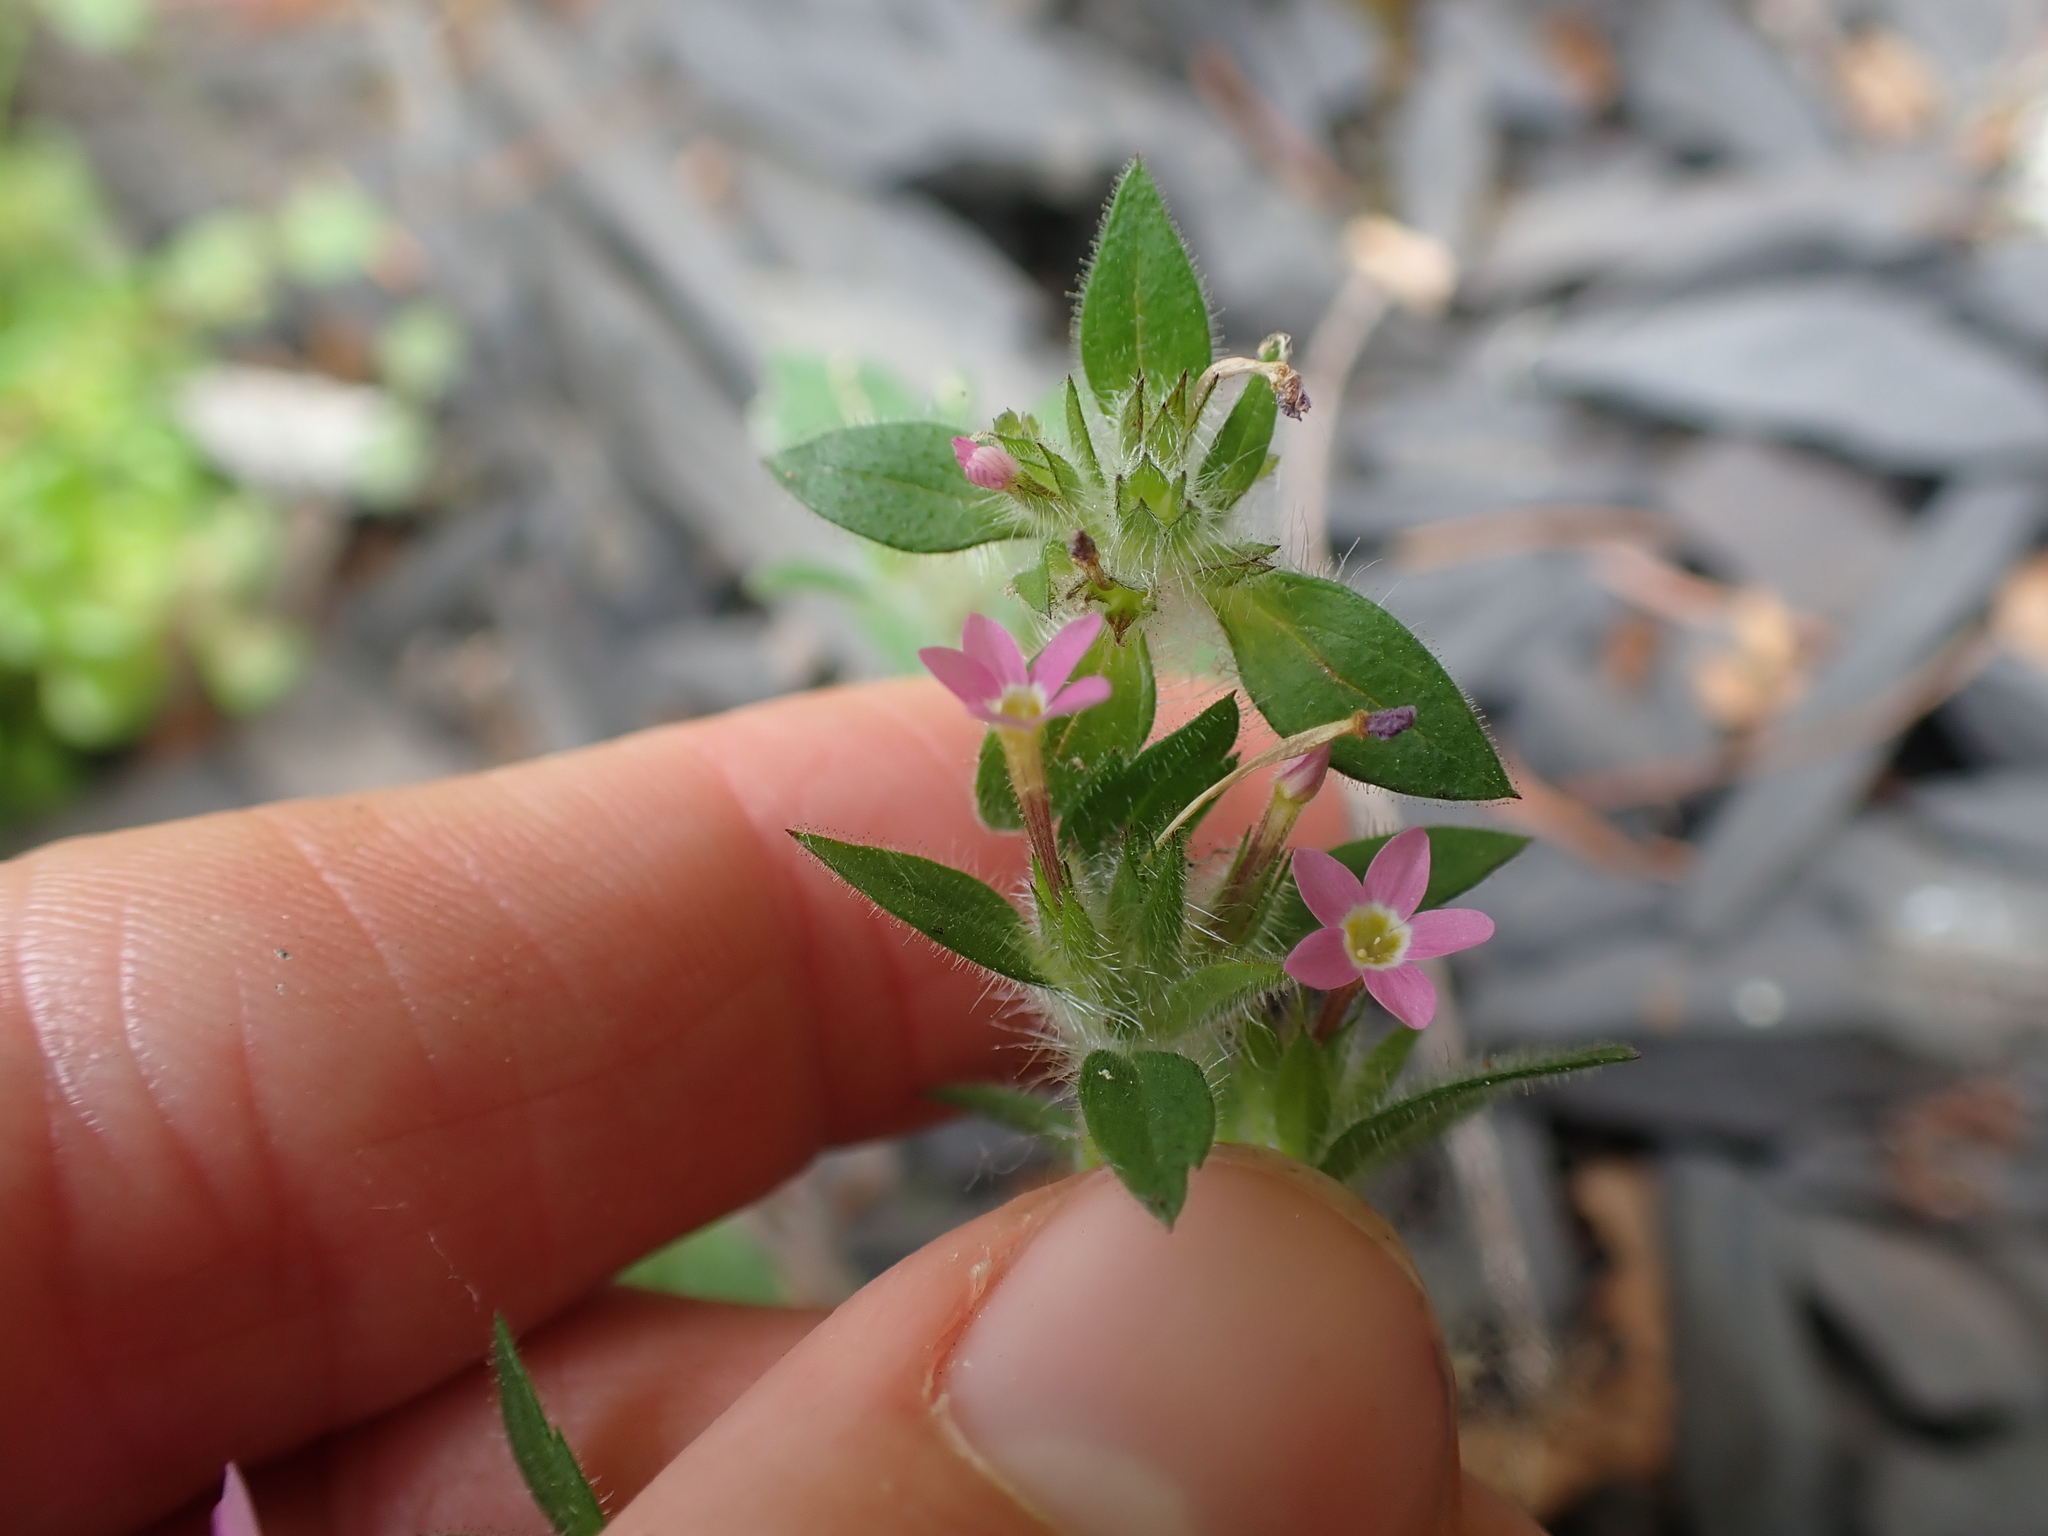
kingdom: Plantae
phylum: Tracheophyta
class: Magnoliopsida
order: Ericales
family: Polemoniaceae
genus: Collomia
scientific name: Collomia heterophylla
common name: Variable-leaved collomia
